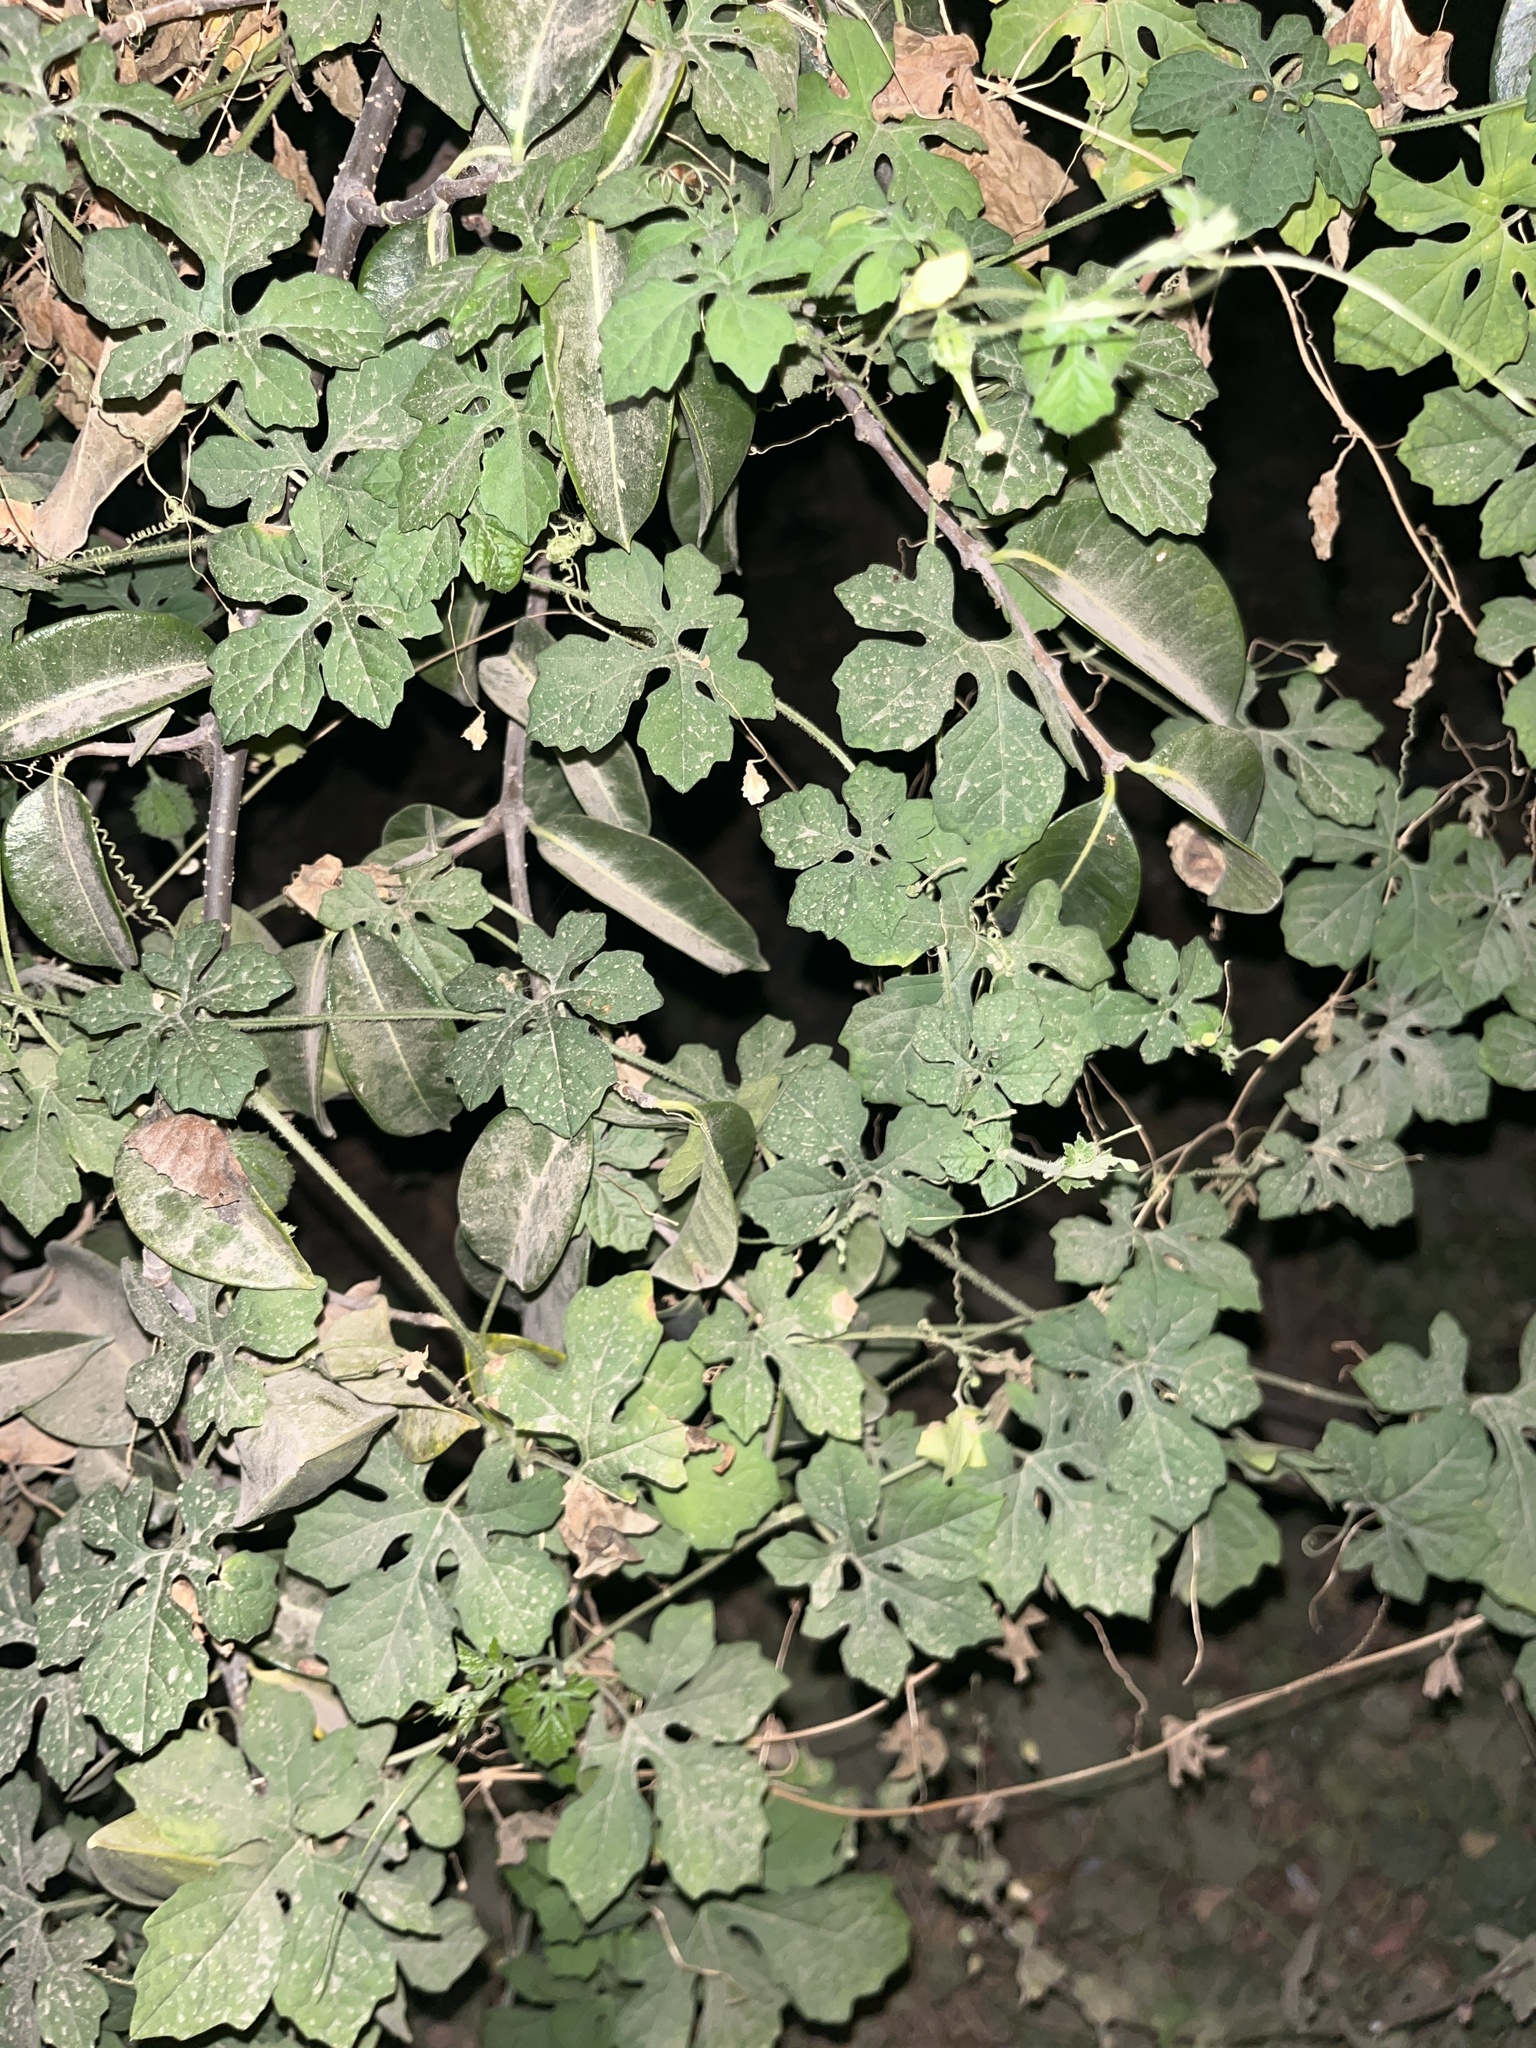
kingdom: Plantae
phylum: Tracheophyta
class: Magnoliopsida
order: Cucurbitales
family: Cucurbitaceae
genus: Momordica
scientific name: Momordica charantia
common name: Balsampear
